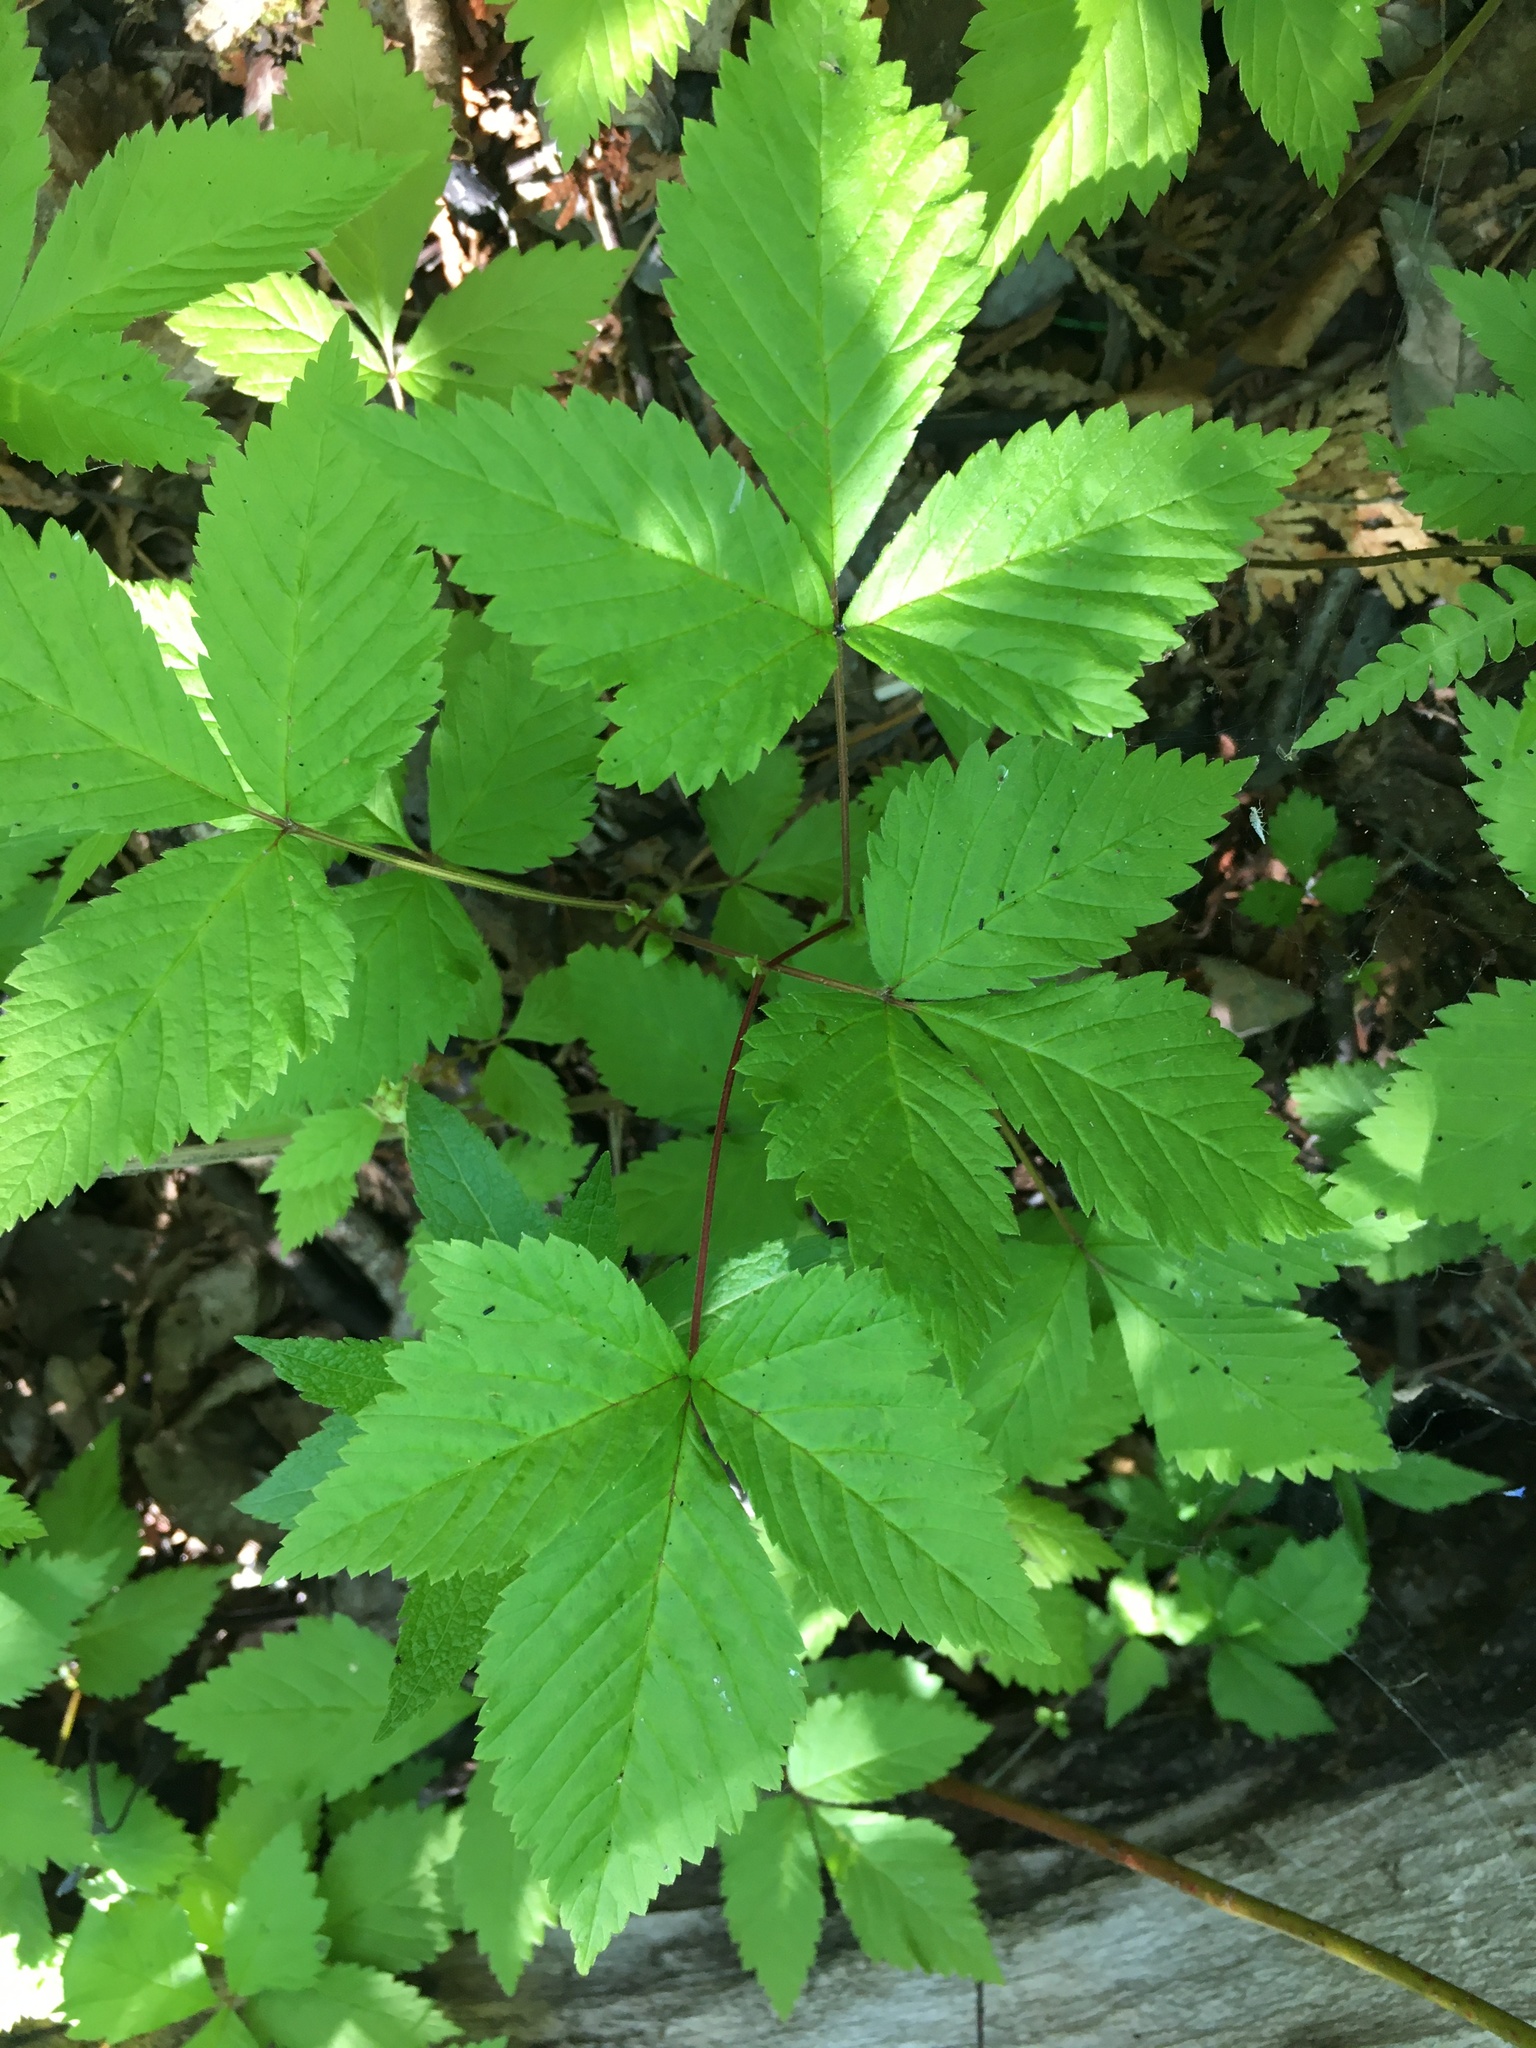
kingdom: Plantae
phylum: Tracheophyta
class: Magnoliopsida
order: Rosales
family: Rosaceae
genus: Rubus
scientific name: Rubus pubescens
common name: Dwarf raspberry
